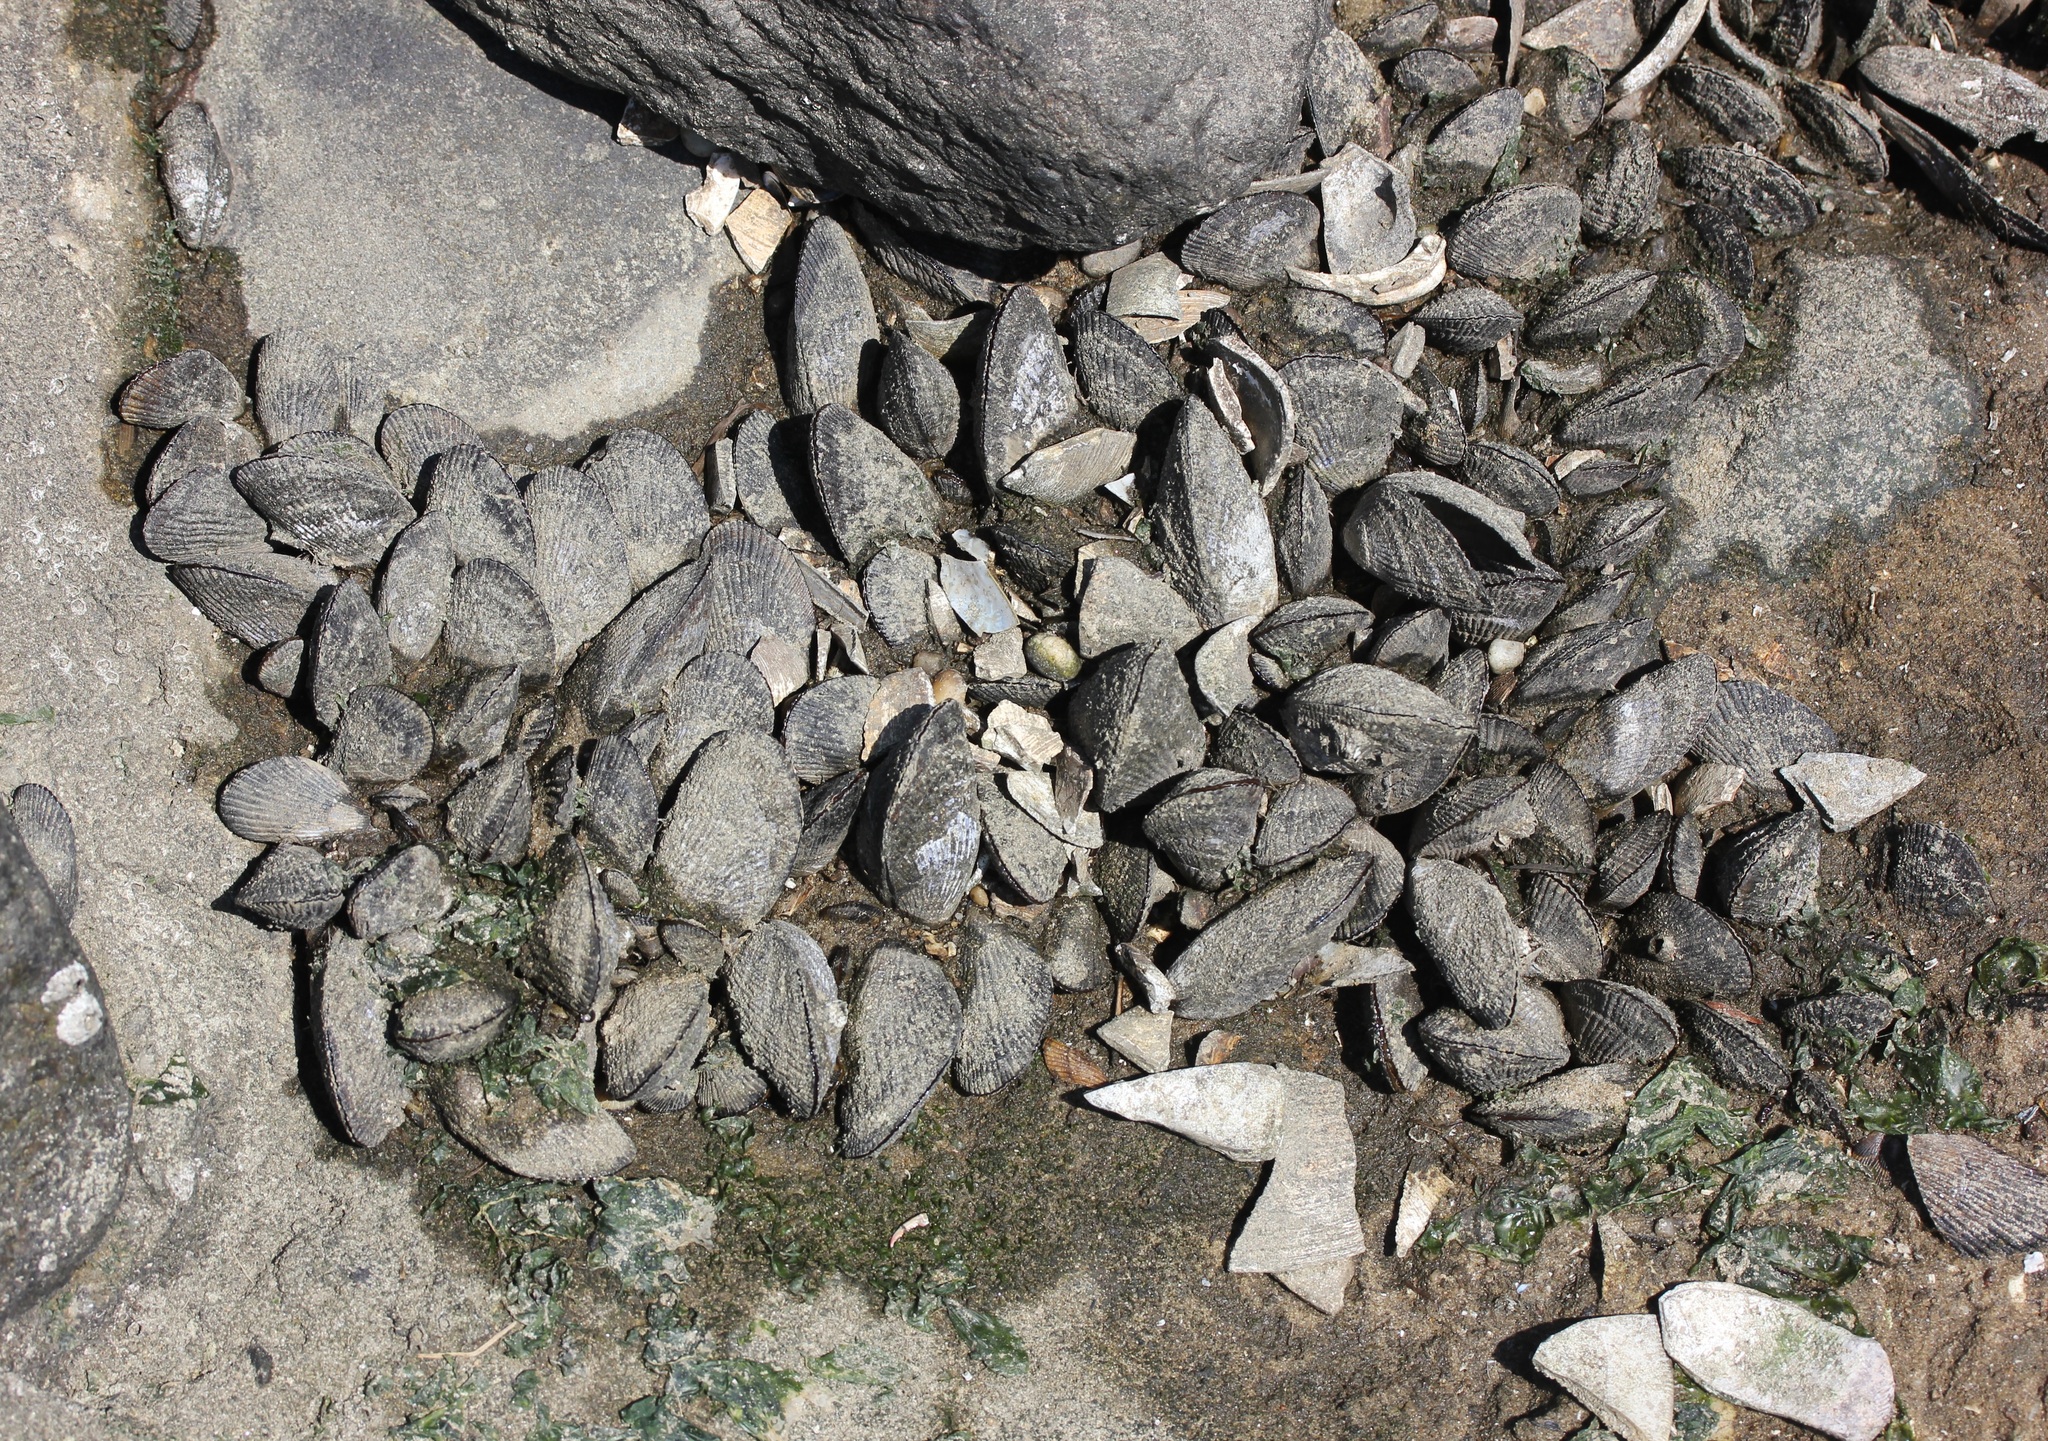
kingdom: Animalia
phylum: Mollusca
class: Bivalvia
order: Mytilida
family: Mytilidae
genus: Geukensia
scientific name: Geukensia demissa
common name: Ribbed mussel
